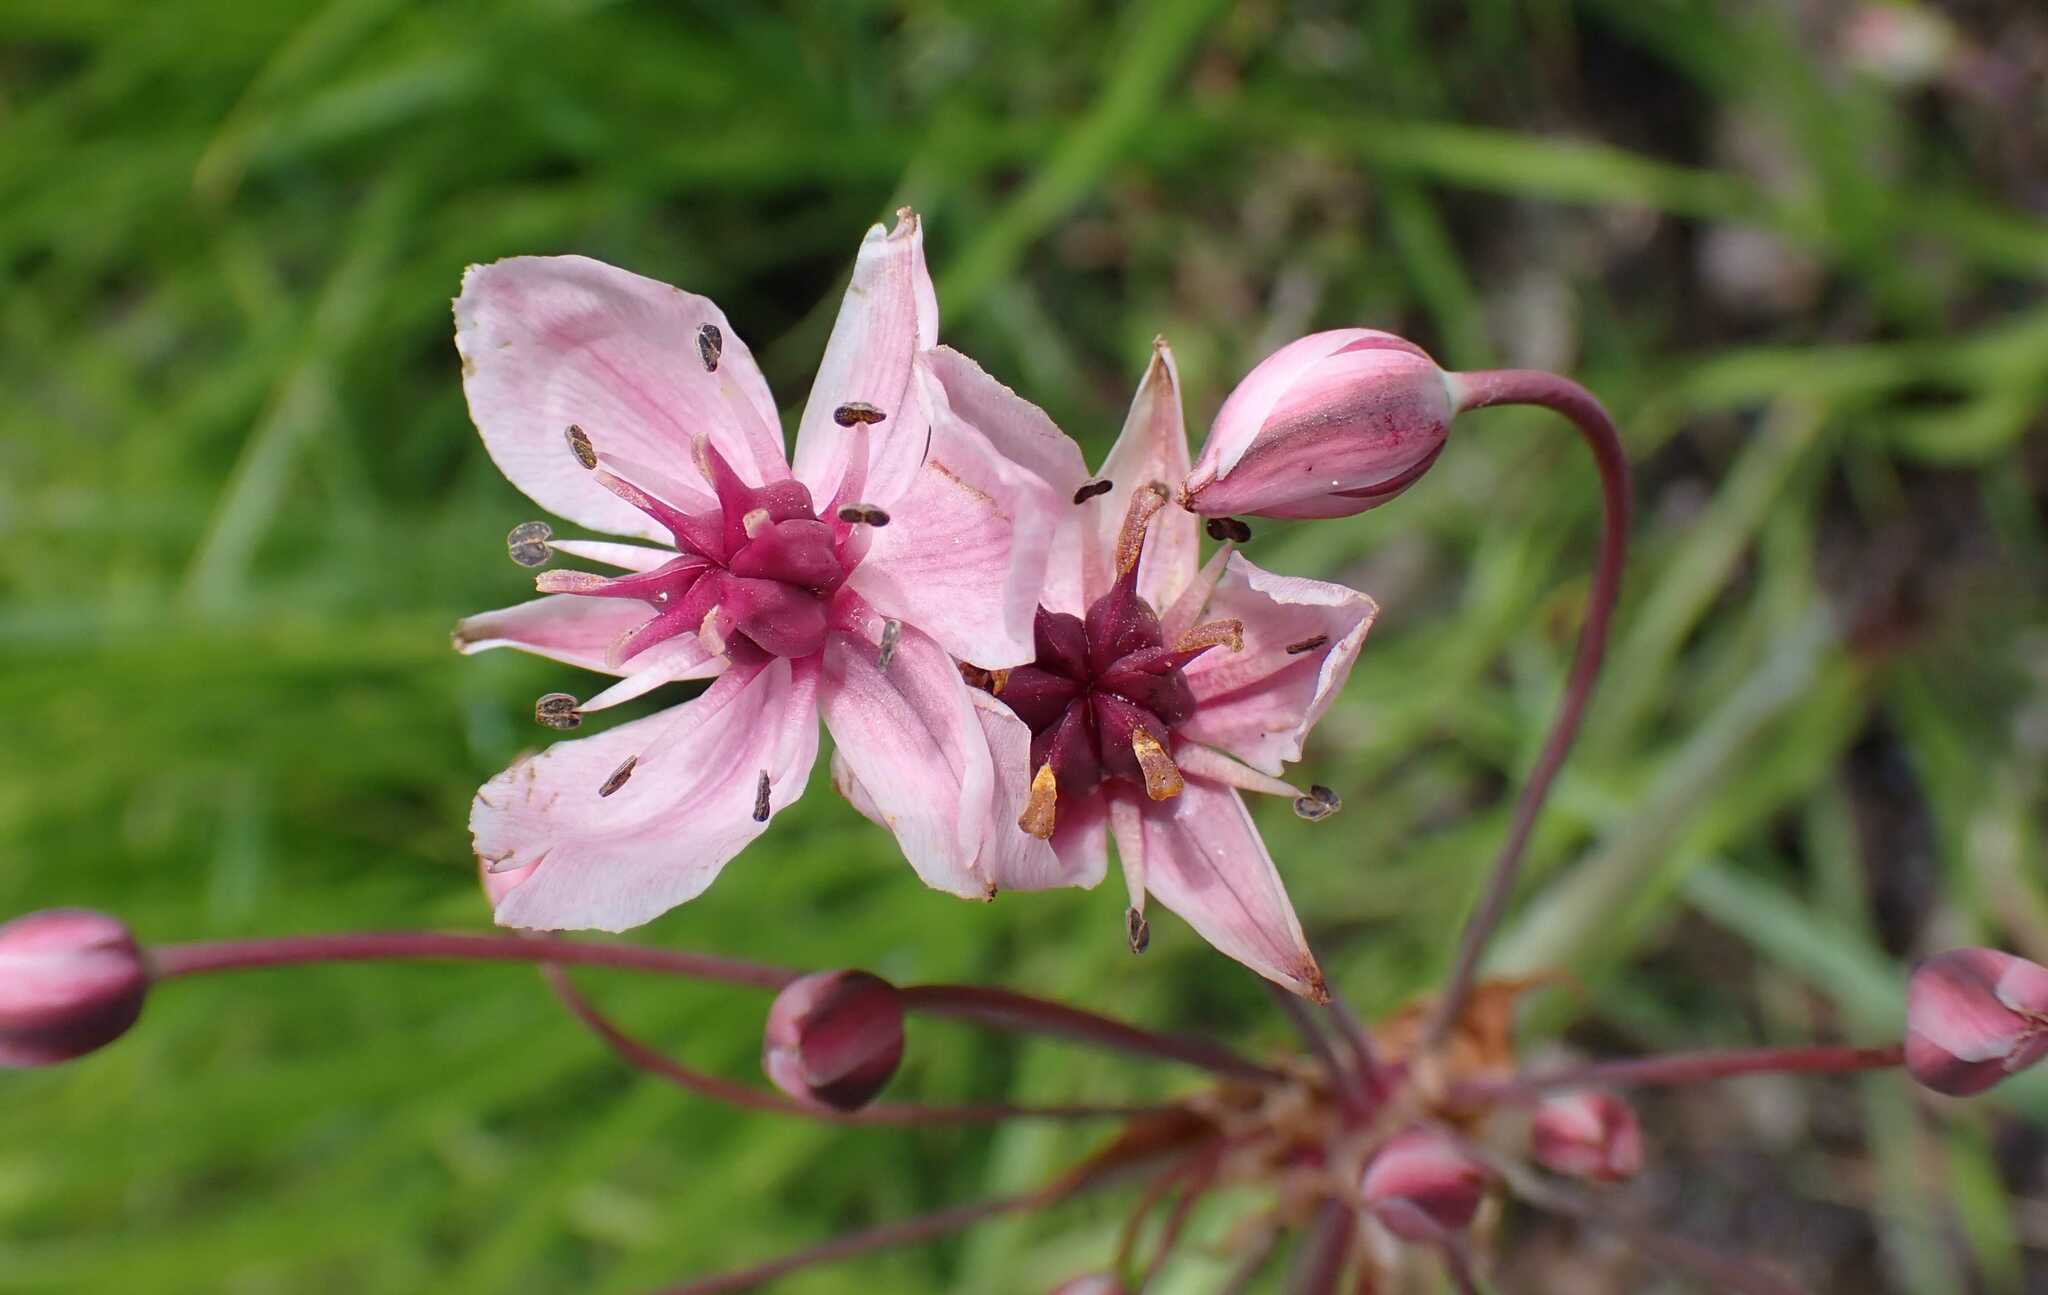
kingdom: Plantae
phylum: Tracheophyta
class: Liliopsida
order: Alismatales
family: Butomaceae
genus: Butomus
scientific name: Butomus umbellatus
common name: Flowering-rush
